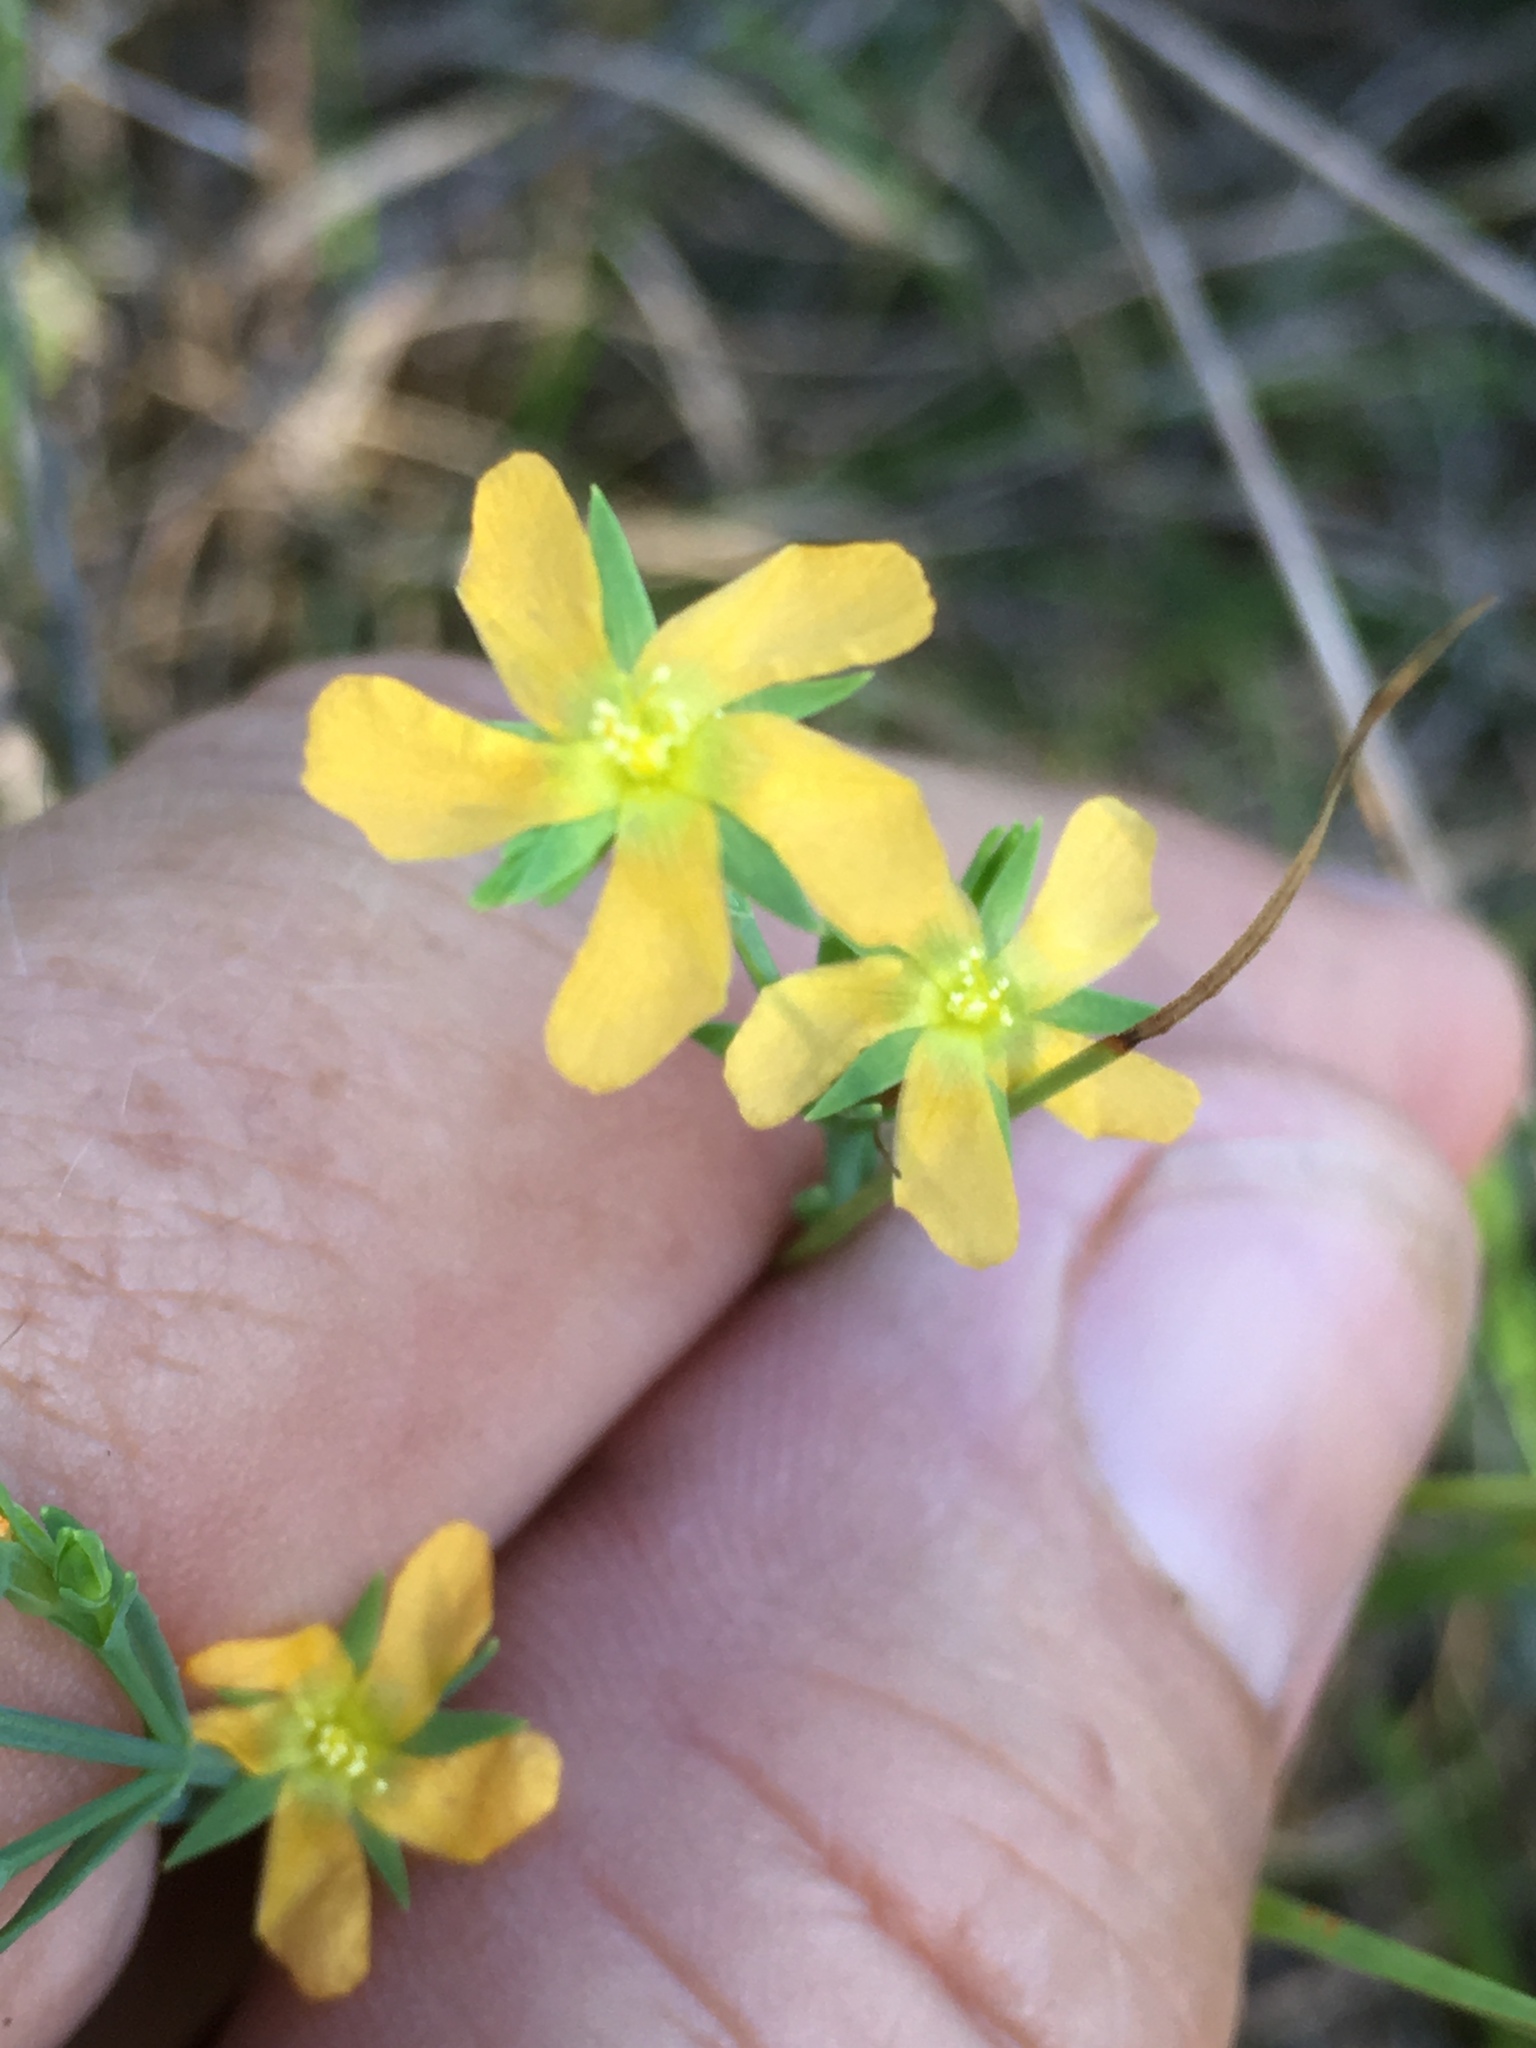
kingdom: Plantae
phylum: Tracheophyta
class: Magnoliopsida
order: Malpighiales
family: Hypericaceae
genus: Hypericum
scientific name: Hypericum drummondii
